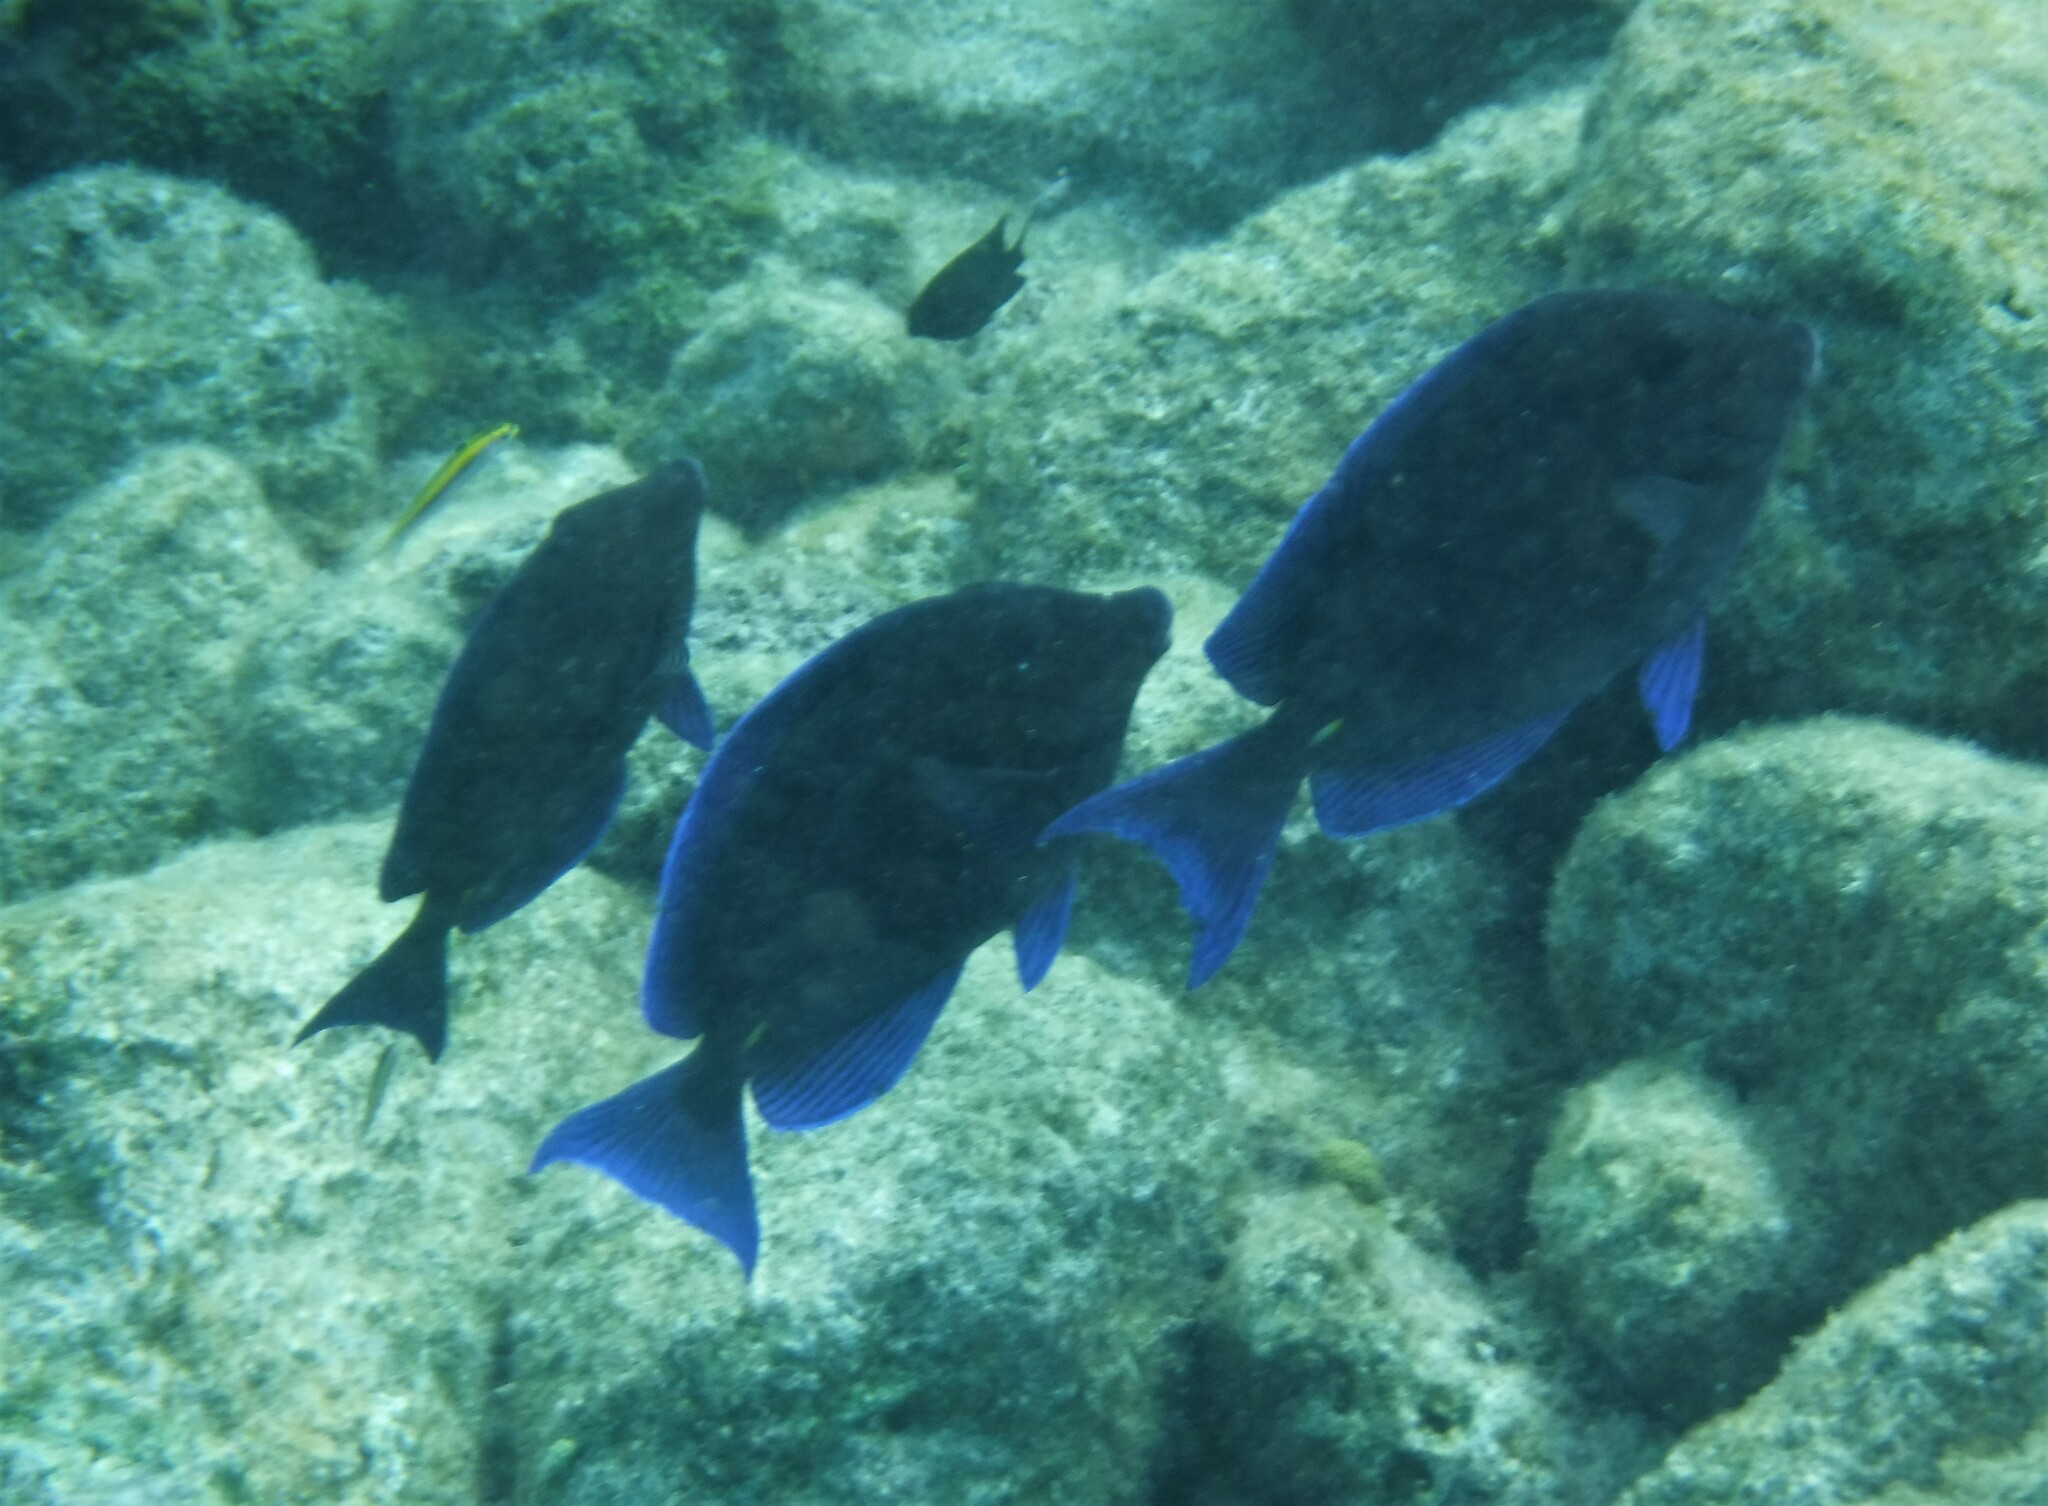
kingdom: Animalia
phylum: Chordata
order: Perciformes
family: Acanthuridae
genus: Acanthurus
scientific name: Acanthurus coeruleus
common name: Blue tang
